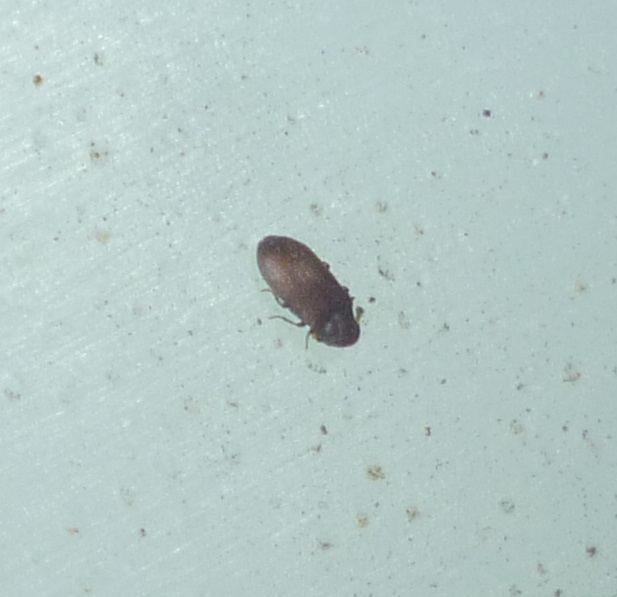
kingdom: Animalia
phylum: Arthropoda
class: Insecta
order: Coleoptera
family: Anobiidae
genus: Petalium
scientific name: Petalium Synanobium parmatum
